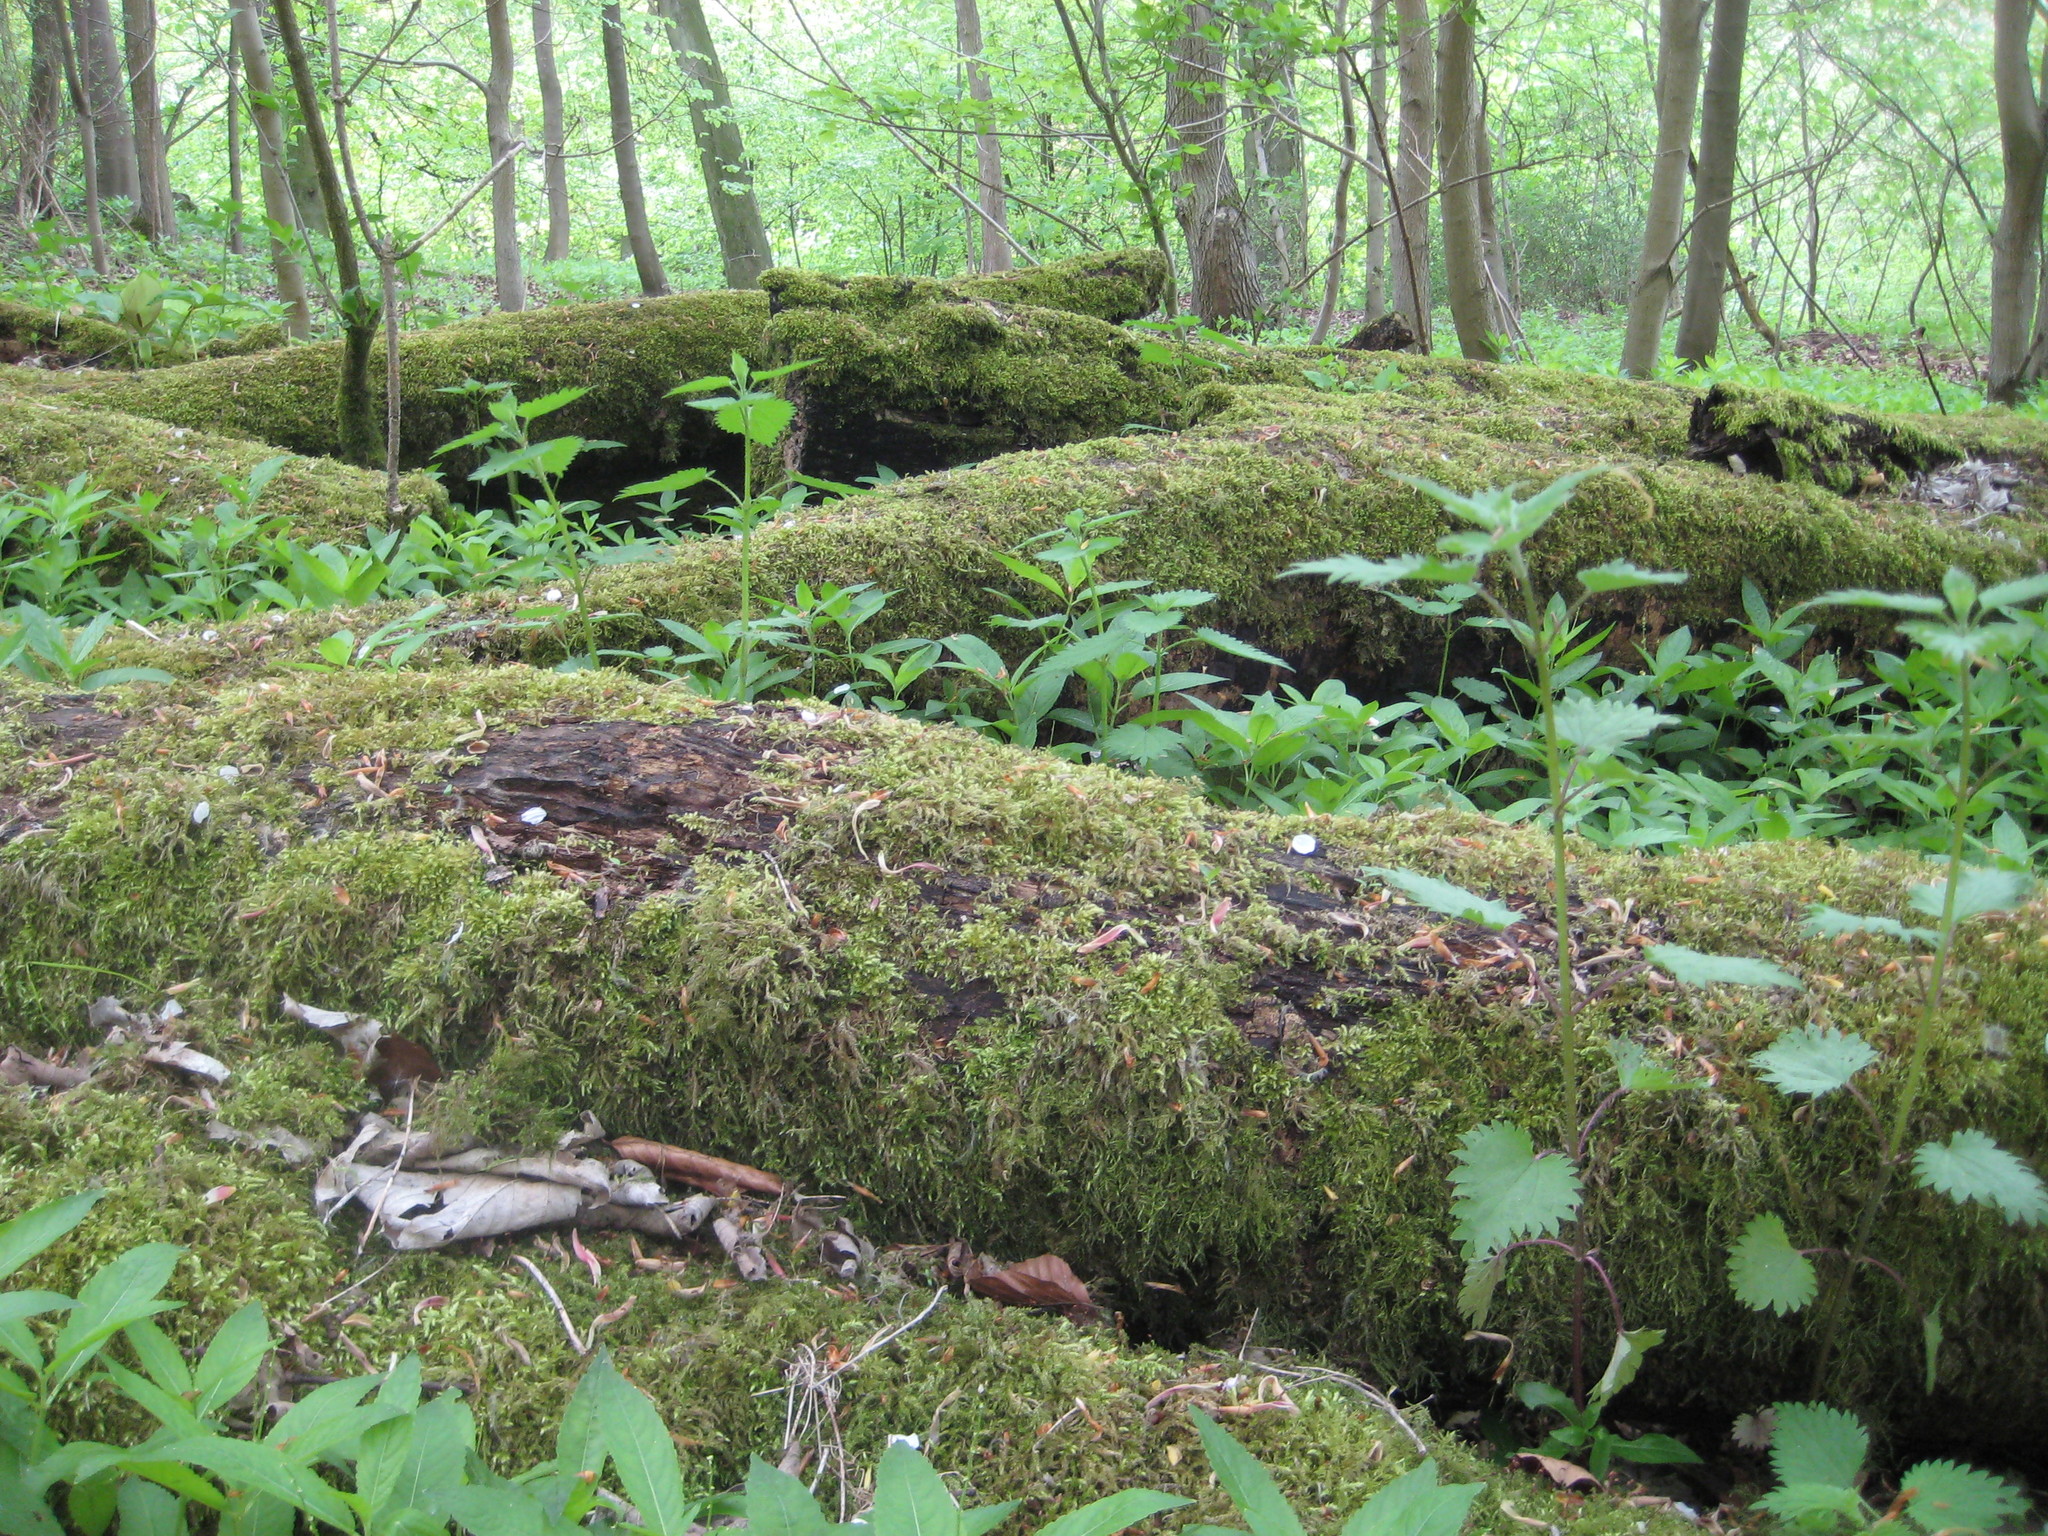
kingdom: Plantae
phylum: Tracheophyta
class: Magnoliopsida
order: Rosales
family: Urticaceae
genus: Urtica
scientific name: Urtica dioica
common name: Common nettle
